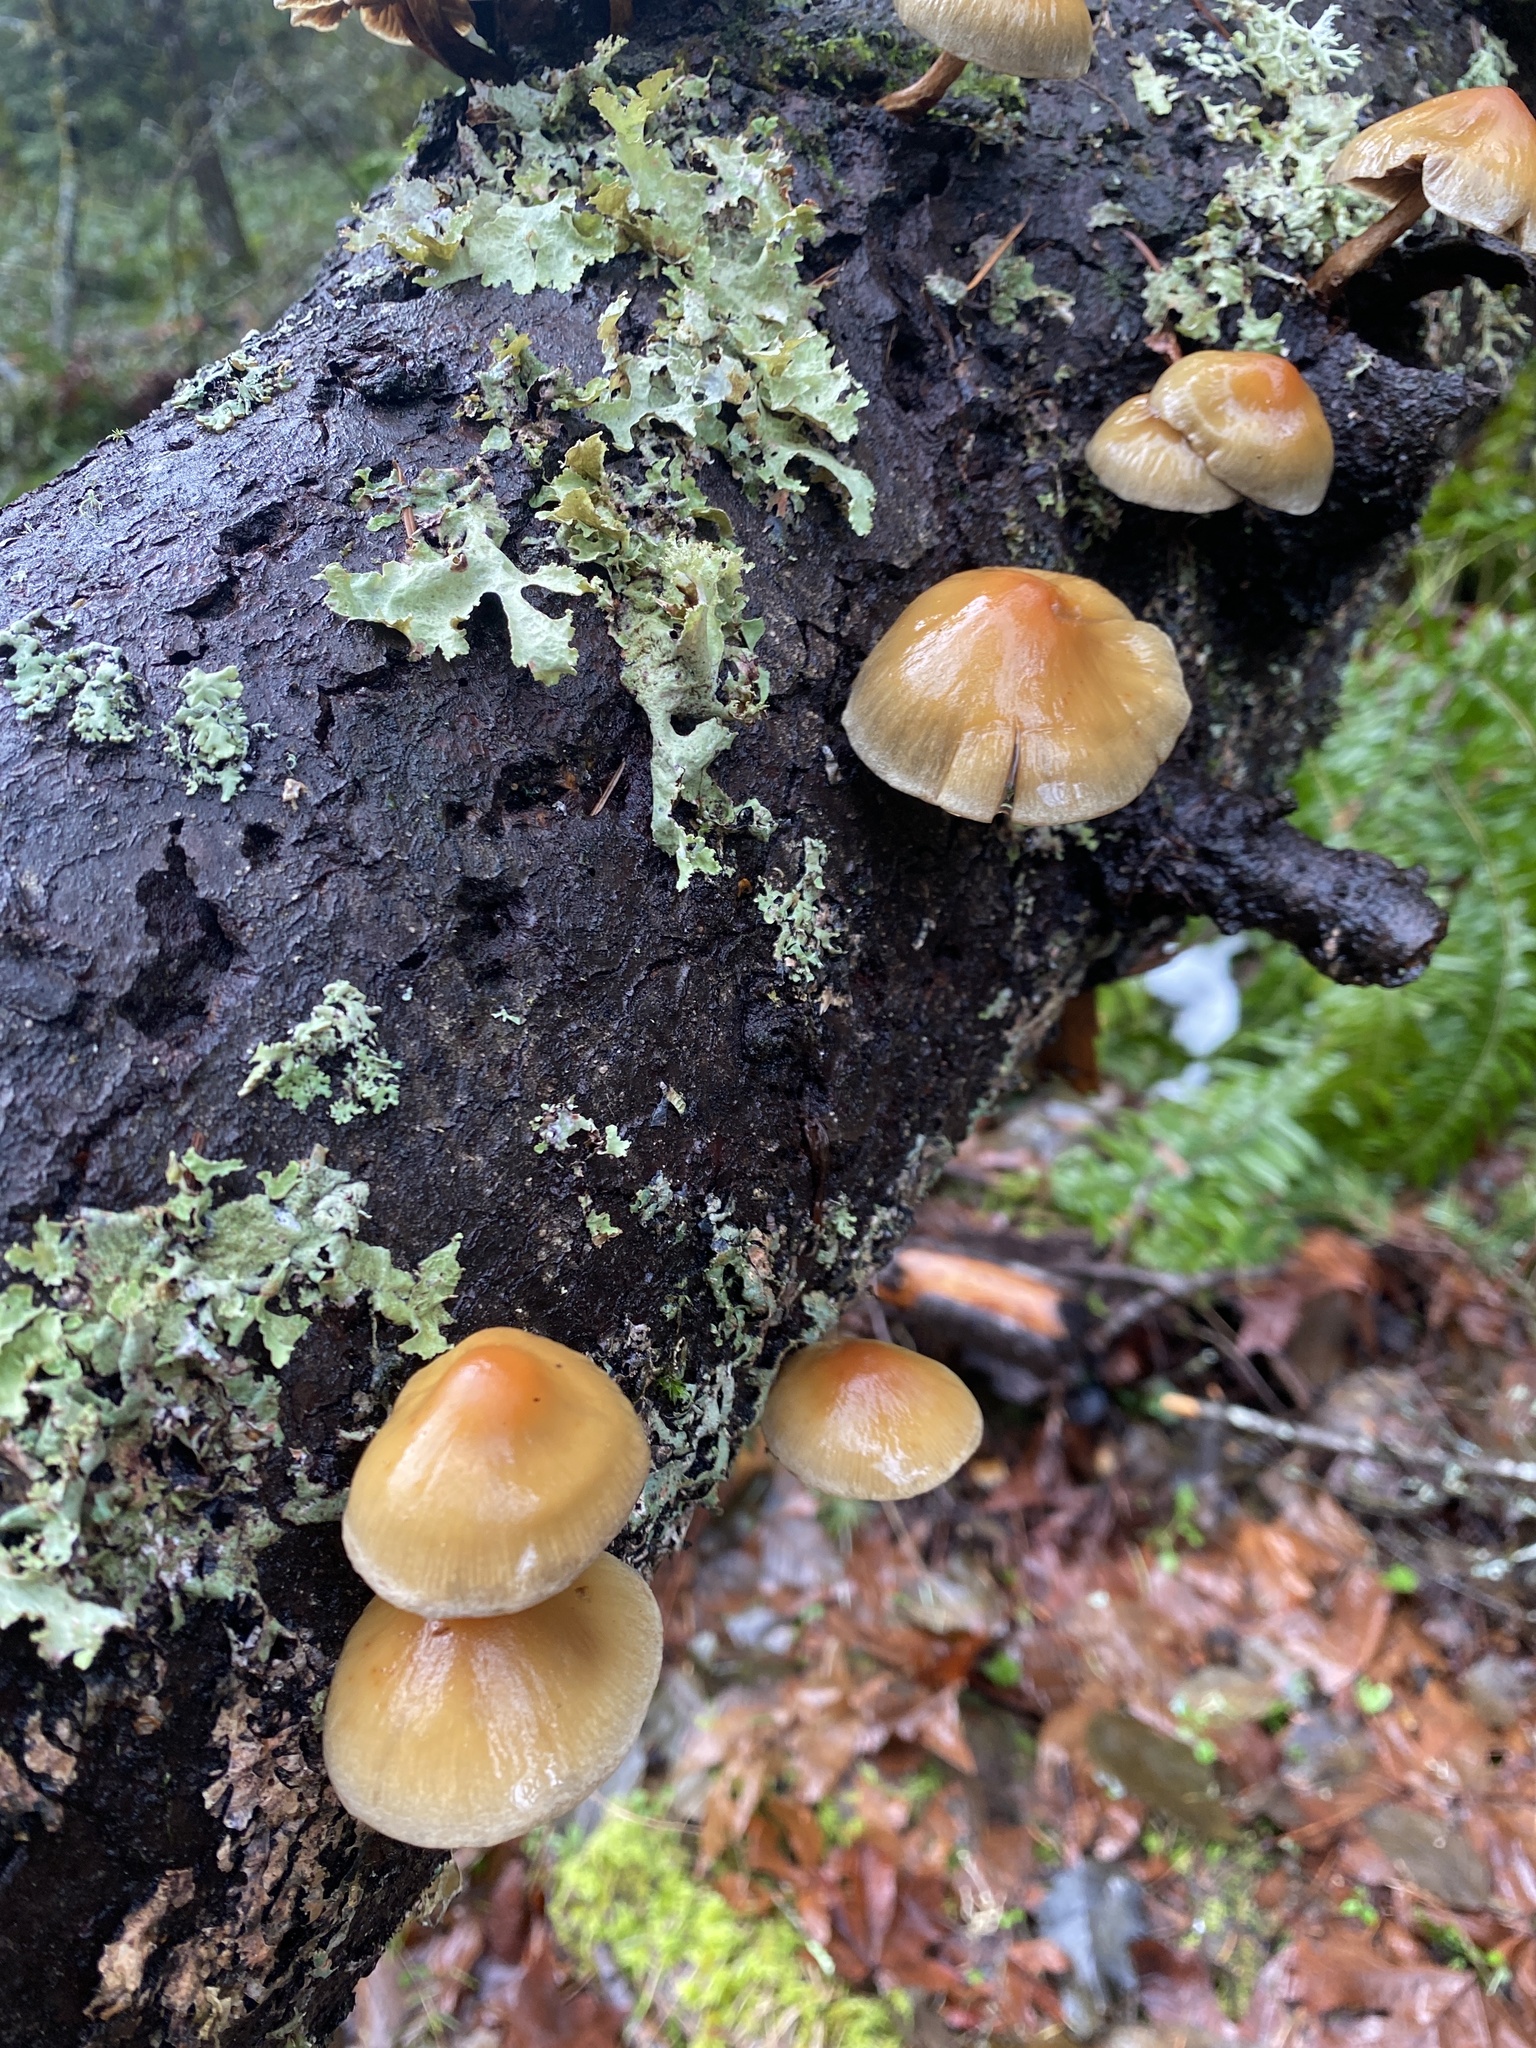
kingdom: Fungi
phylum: Basidiomycota
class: Agaricomycetes
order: Agaricales
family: Strophariaceae
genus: Hypholoma
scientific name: Hypholoma capnoides
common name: Conifer tuft
